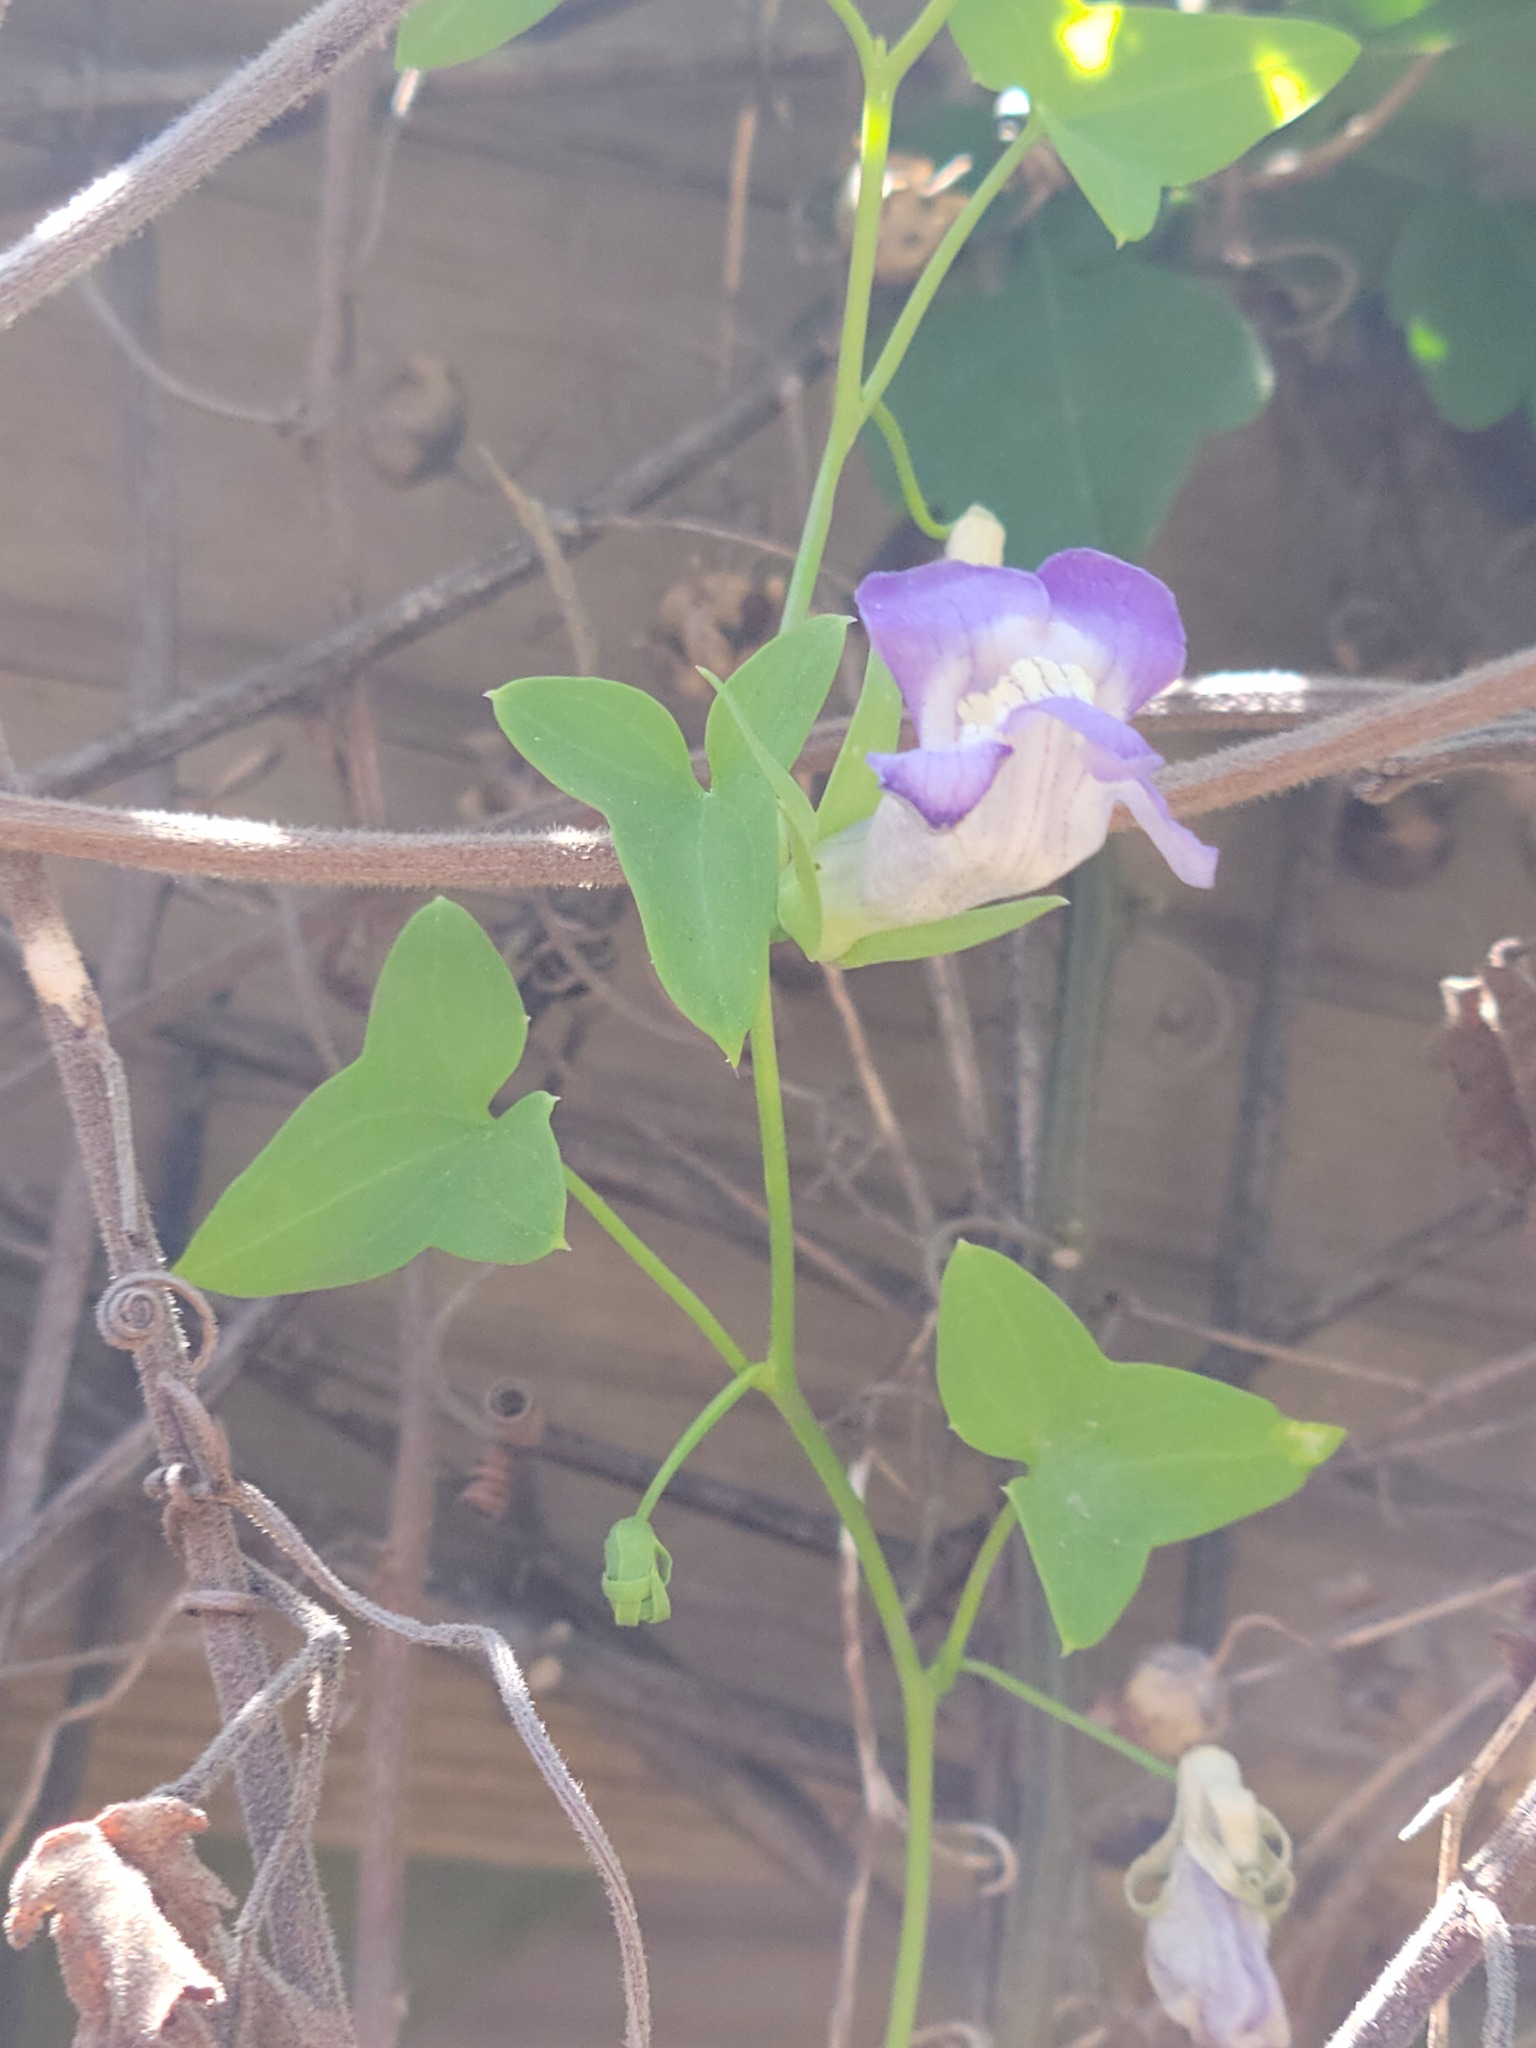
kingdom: Plantae
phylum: Tracheophyta
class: Magnoliopsida
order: Lamiales
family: Plantaginaceae
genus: Maurandella
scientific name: Maurandella antirrhiniflora
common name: Violet twining-snapdragon
